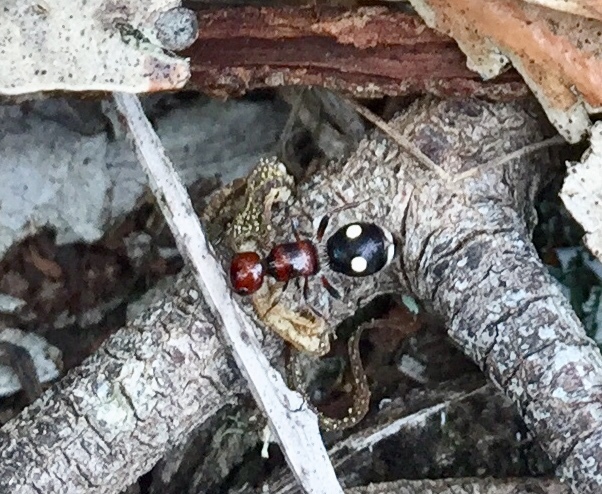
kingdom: Animalia
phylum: Arthropoda
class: Insecta
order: Hymenoptera
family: Mutillidae
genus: Liomutilla
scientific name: Liomutilla canariensis
